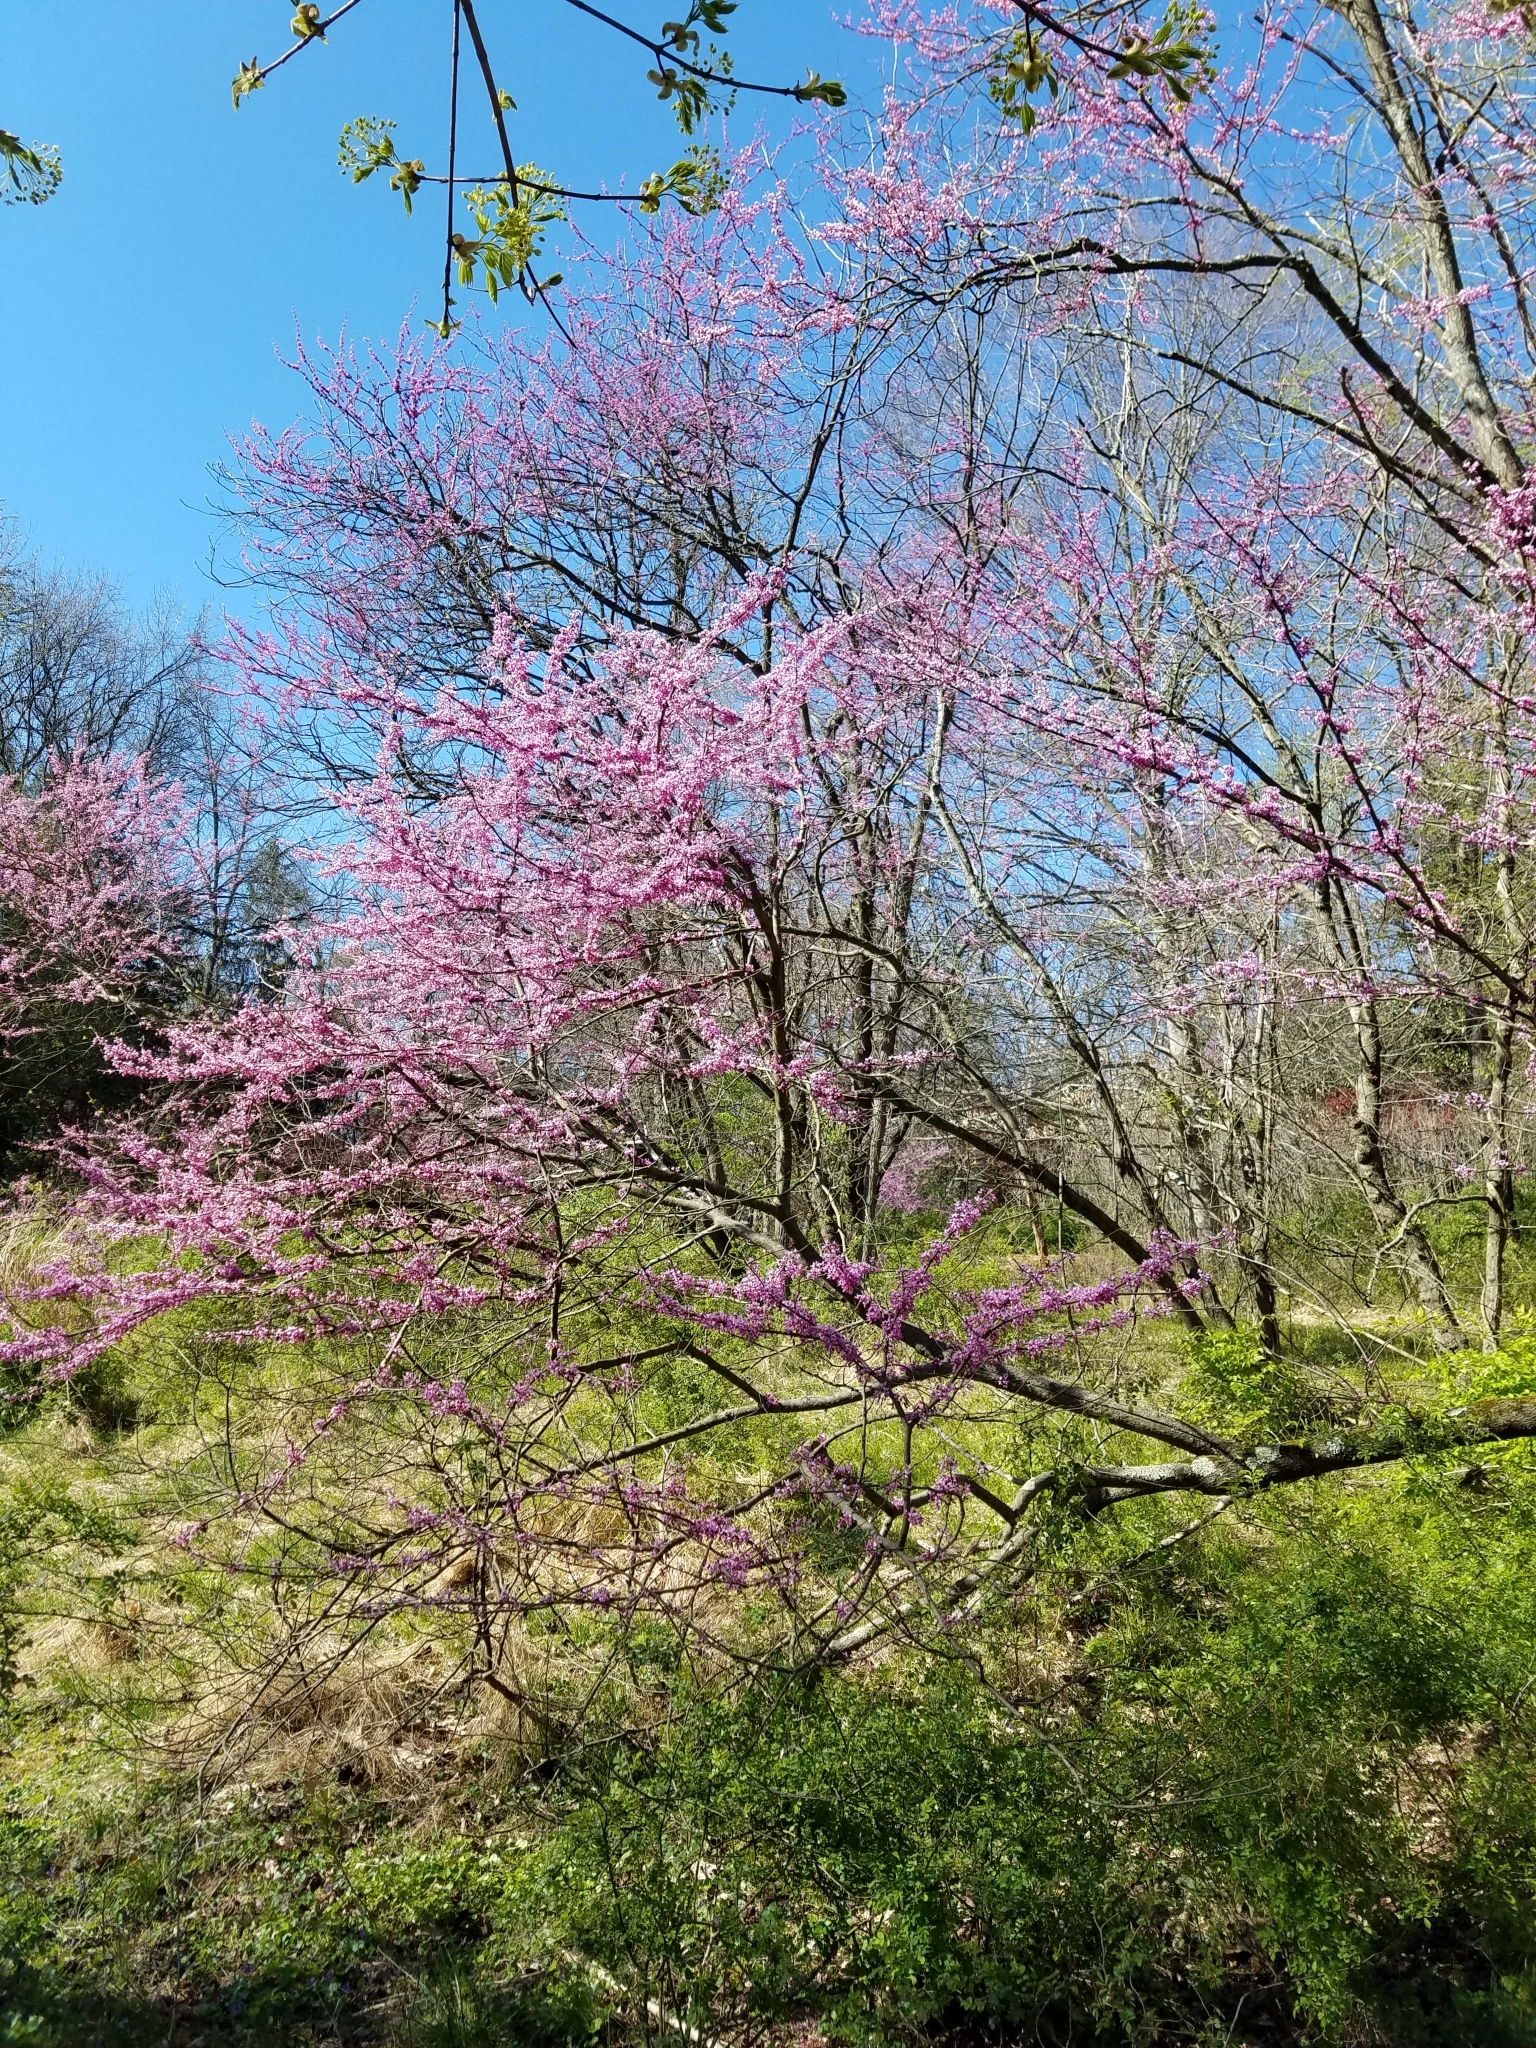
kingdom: Plantae
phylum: Tracheophyta
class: Magnoliopsida
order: Fabales
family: Fabaceae
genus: Cercis
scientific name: Cercis canadensis
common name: Eastern redbud
